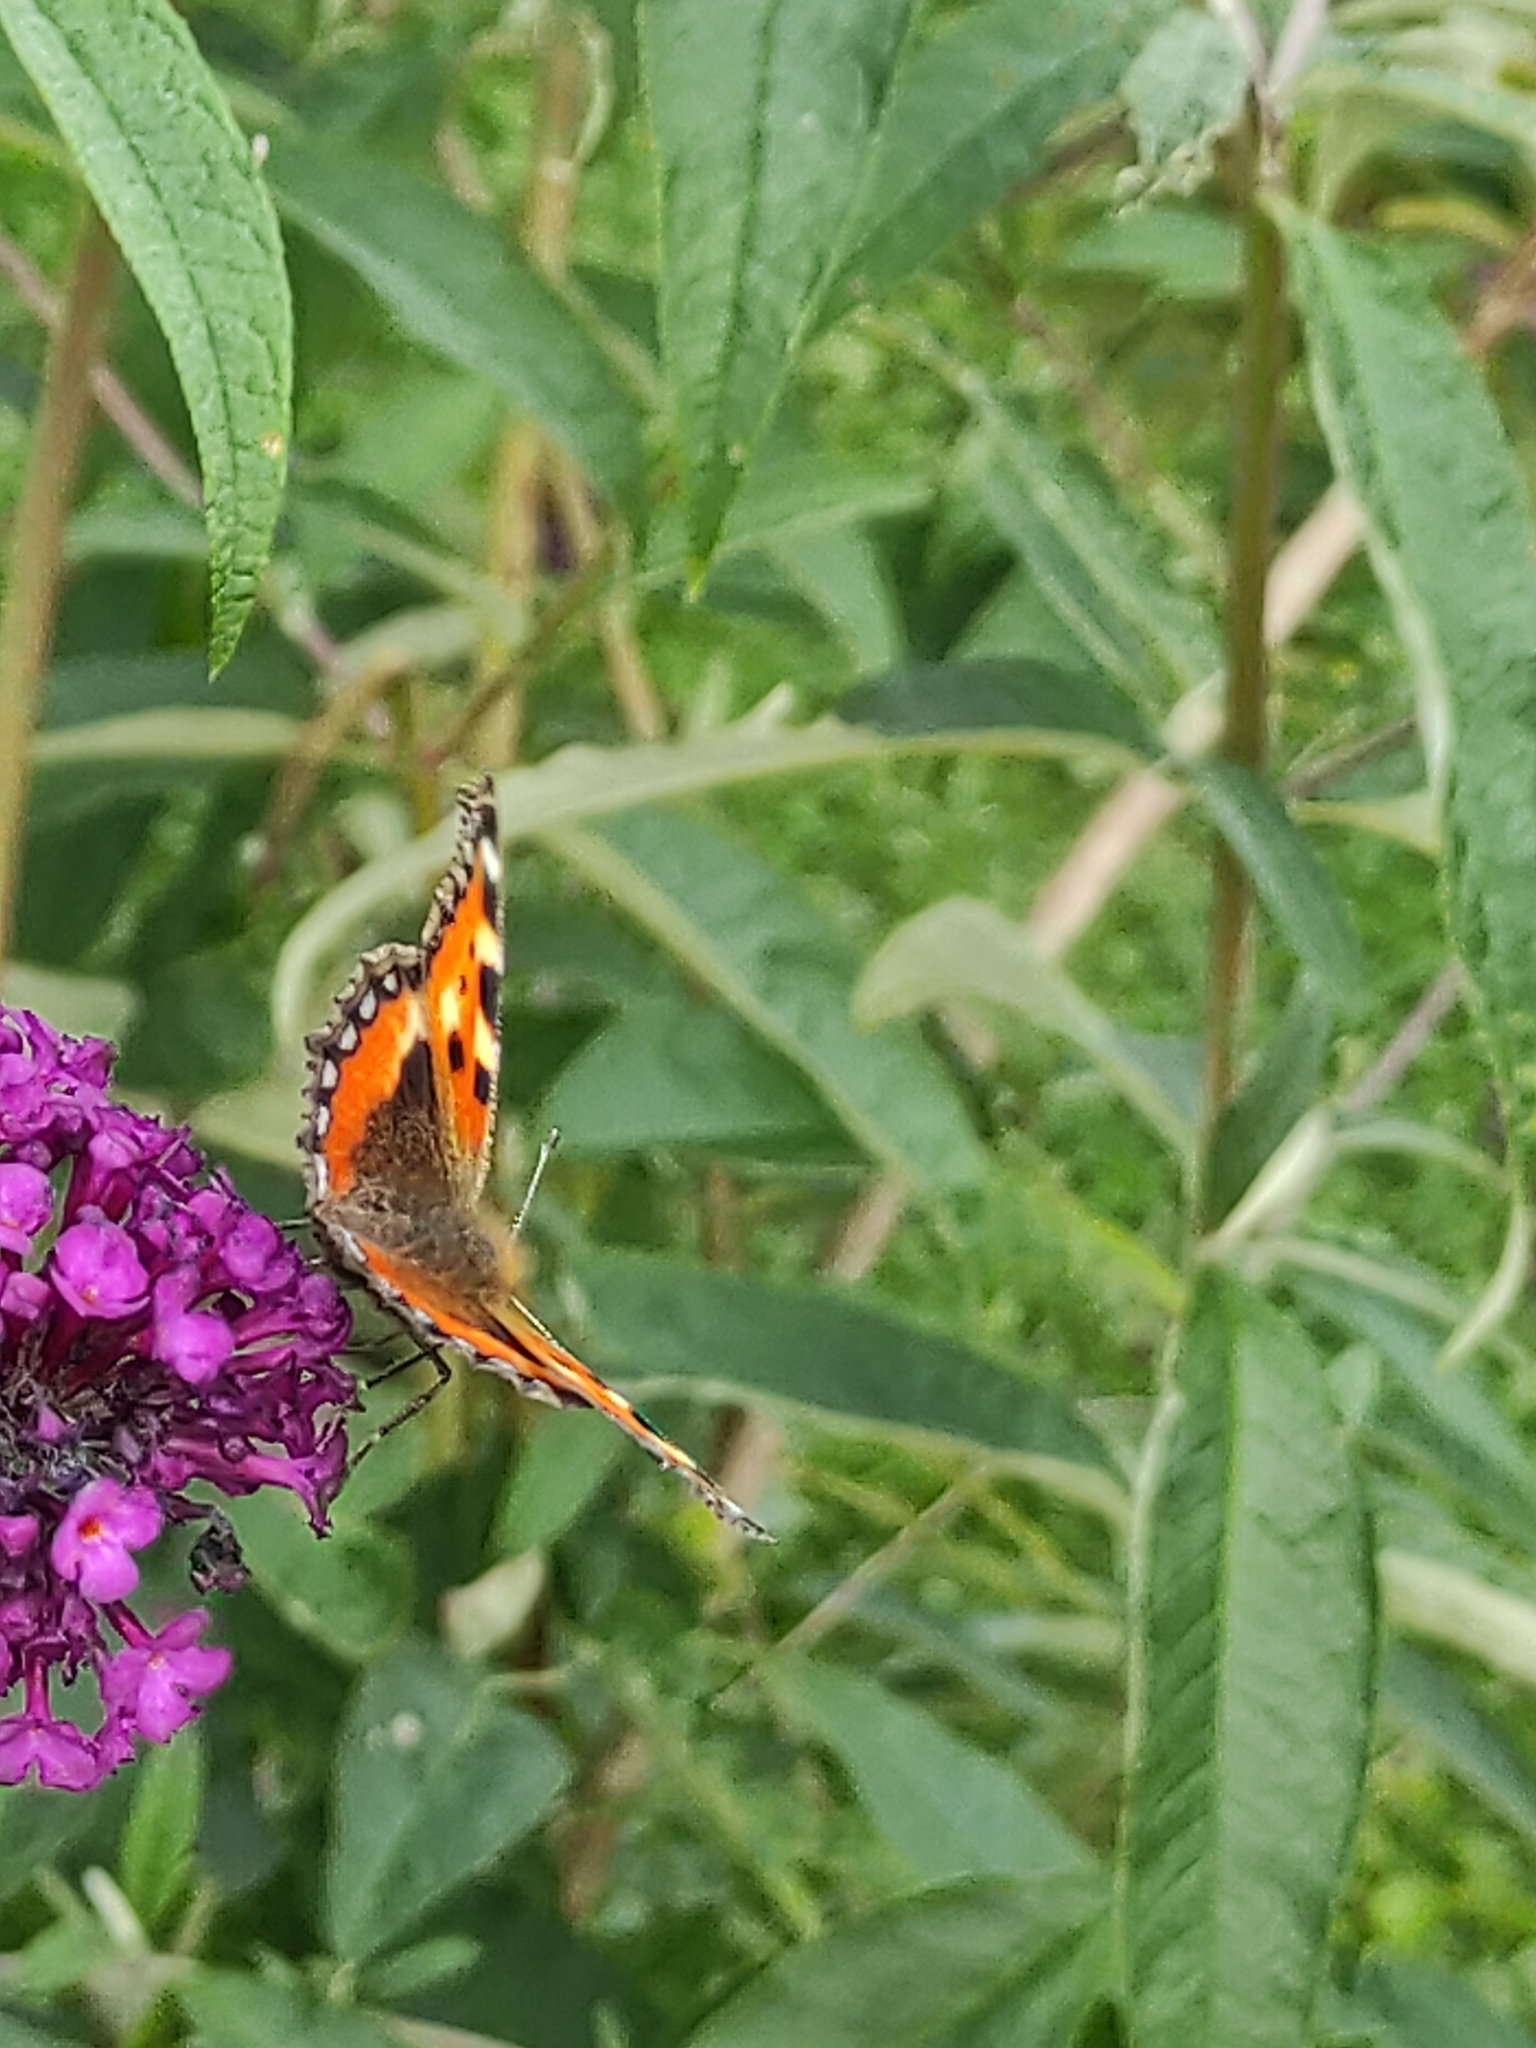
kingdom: Animalia
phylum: Arthropoda
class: Insecta
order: Lepidoptera
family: Nymphalidae
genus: Aglais
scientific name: Aglais urticae
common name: Small tortoiseshell
